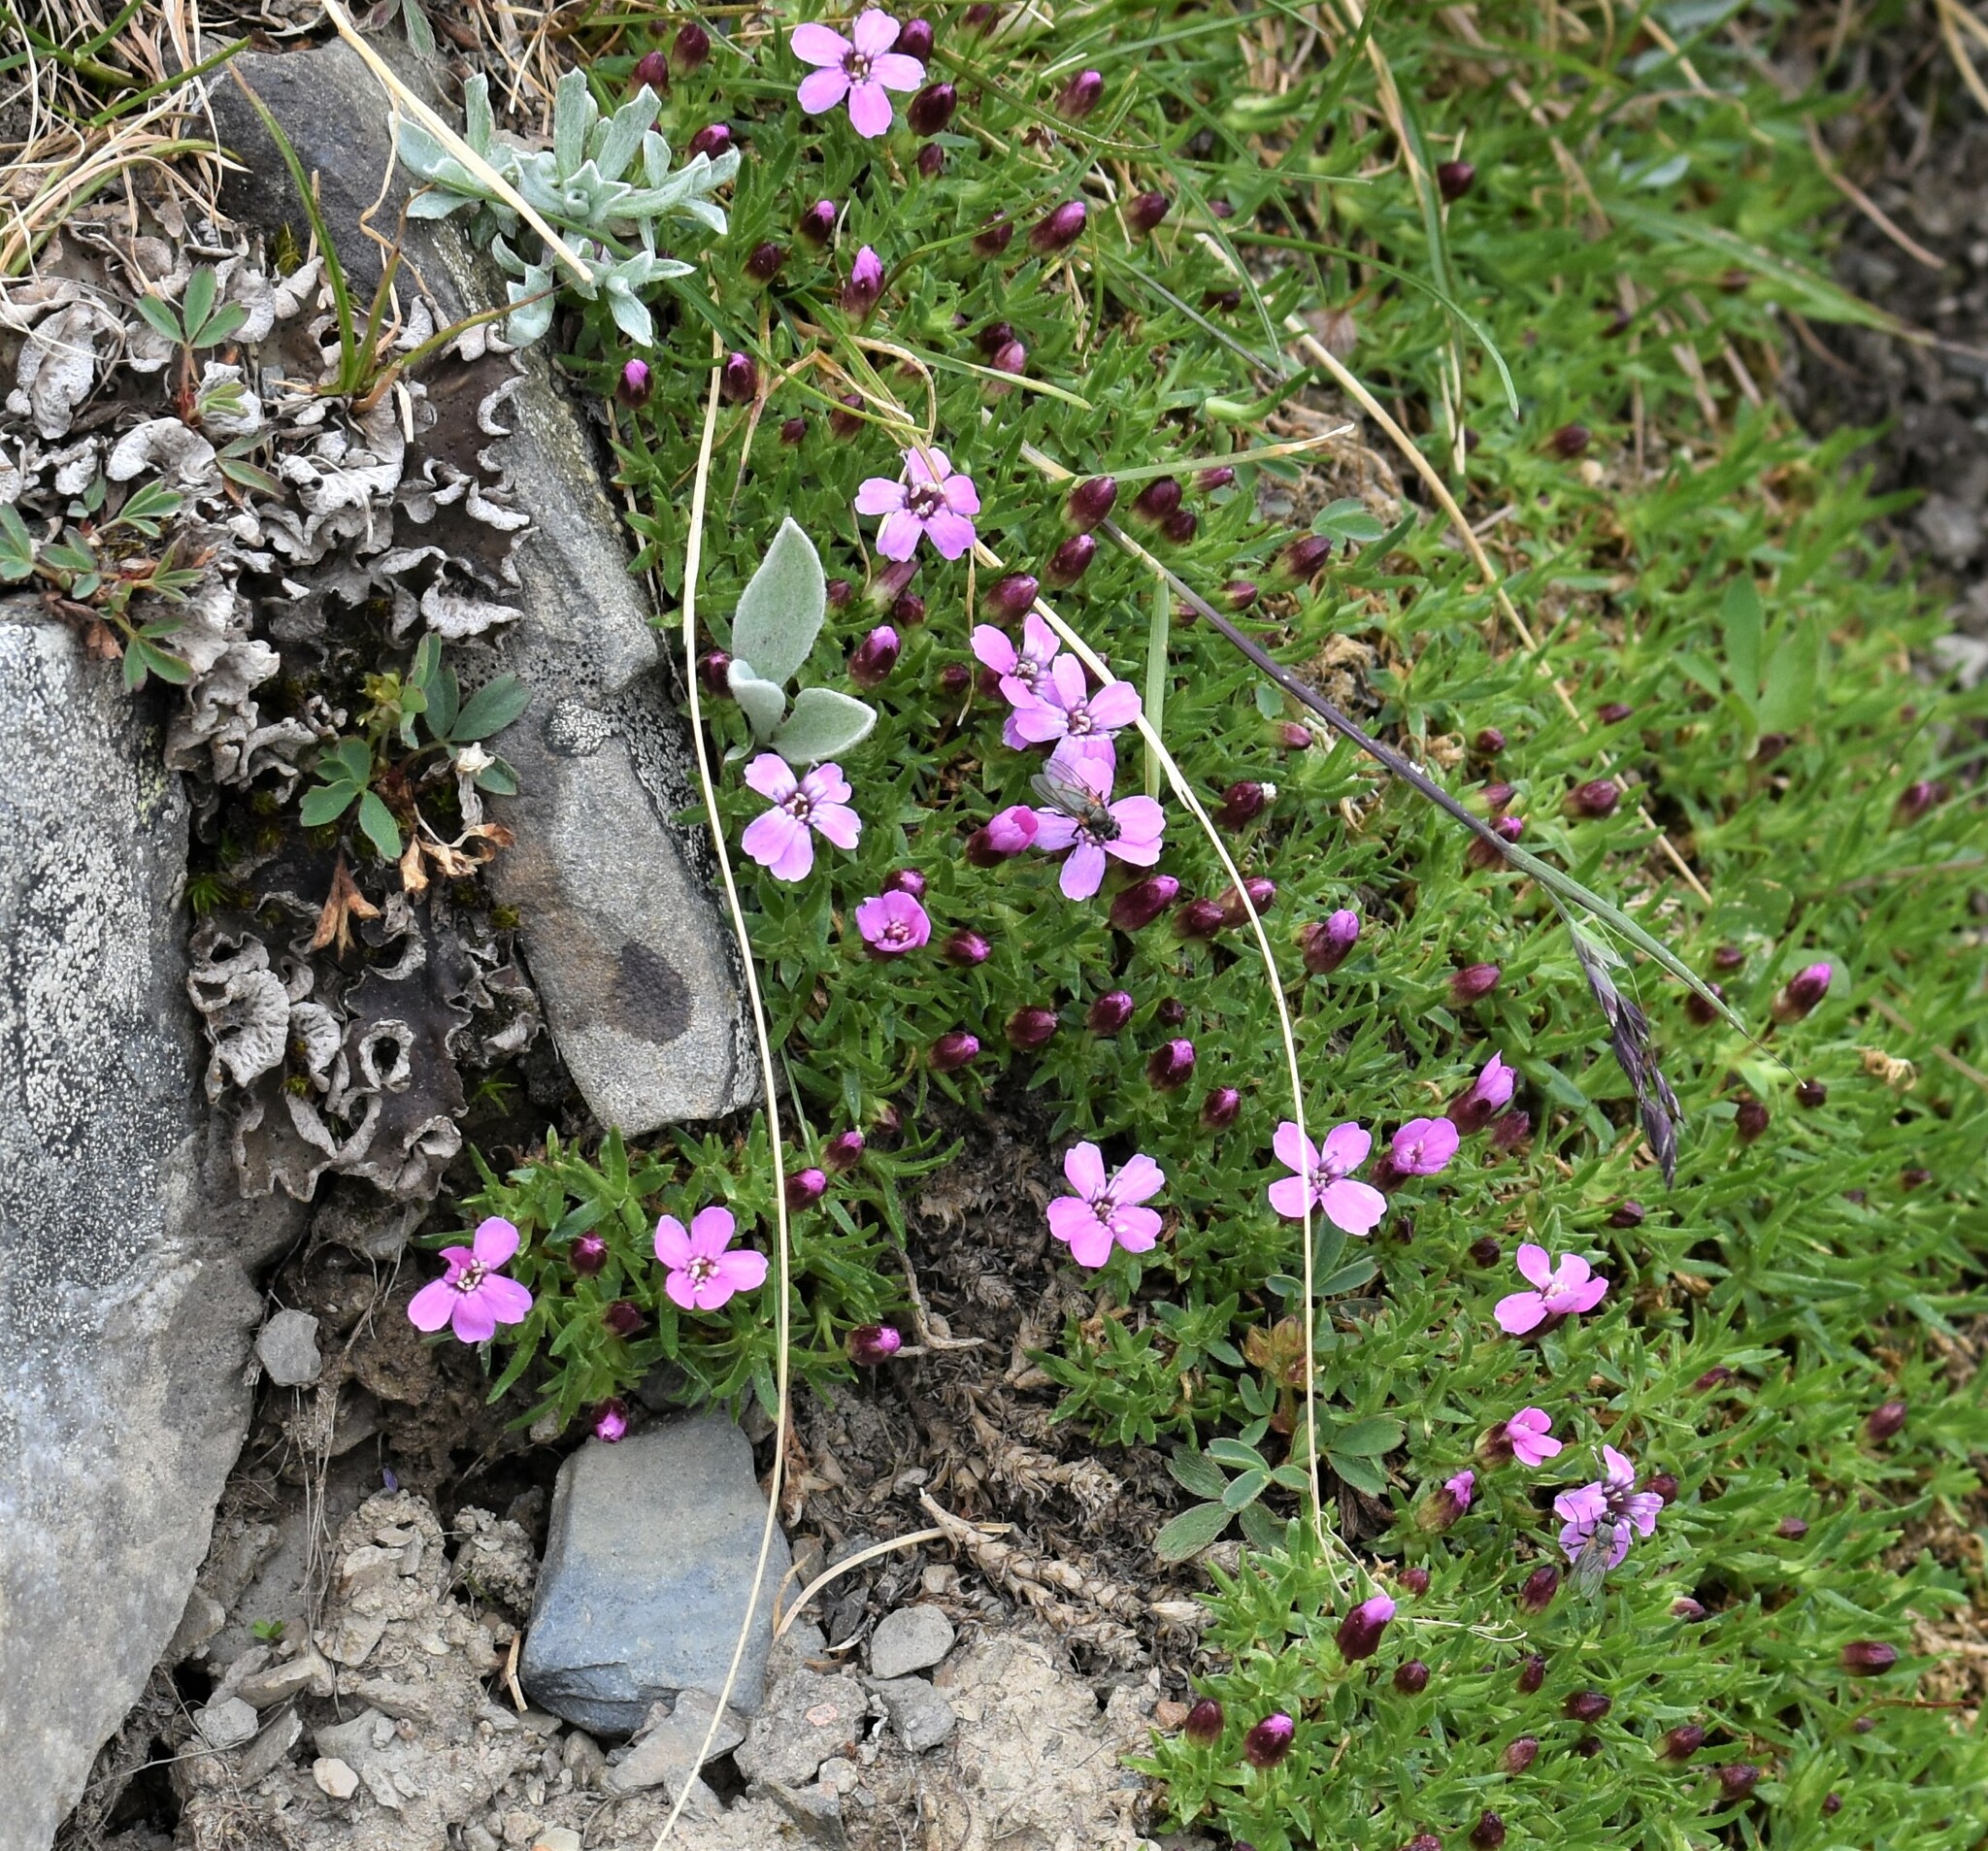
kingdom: Plantae
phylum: Tracheophyta
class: Magnoliopsida
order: Caryophyllales
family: Caryophyllaceae
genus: Silene
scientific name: Silene acaulis
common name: Moss campion
